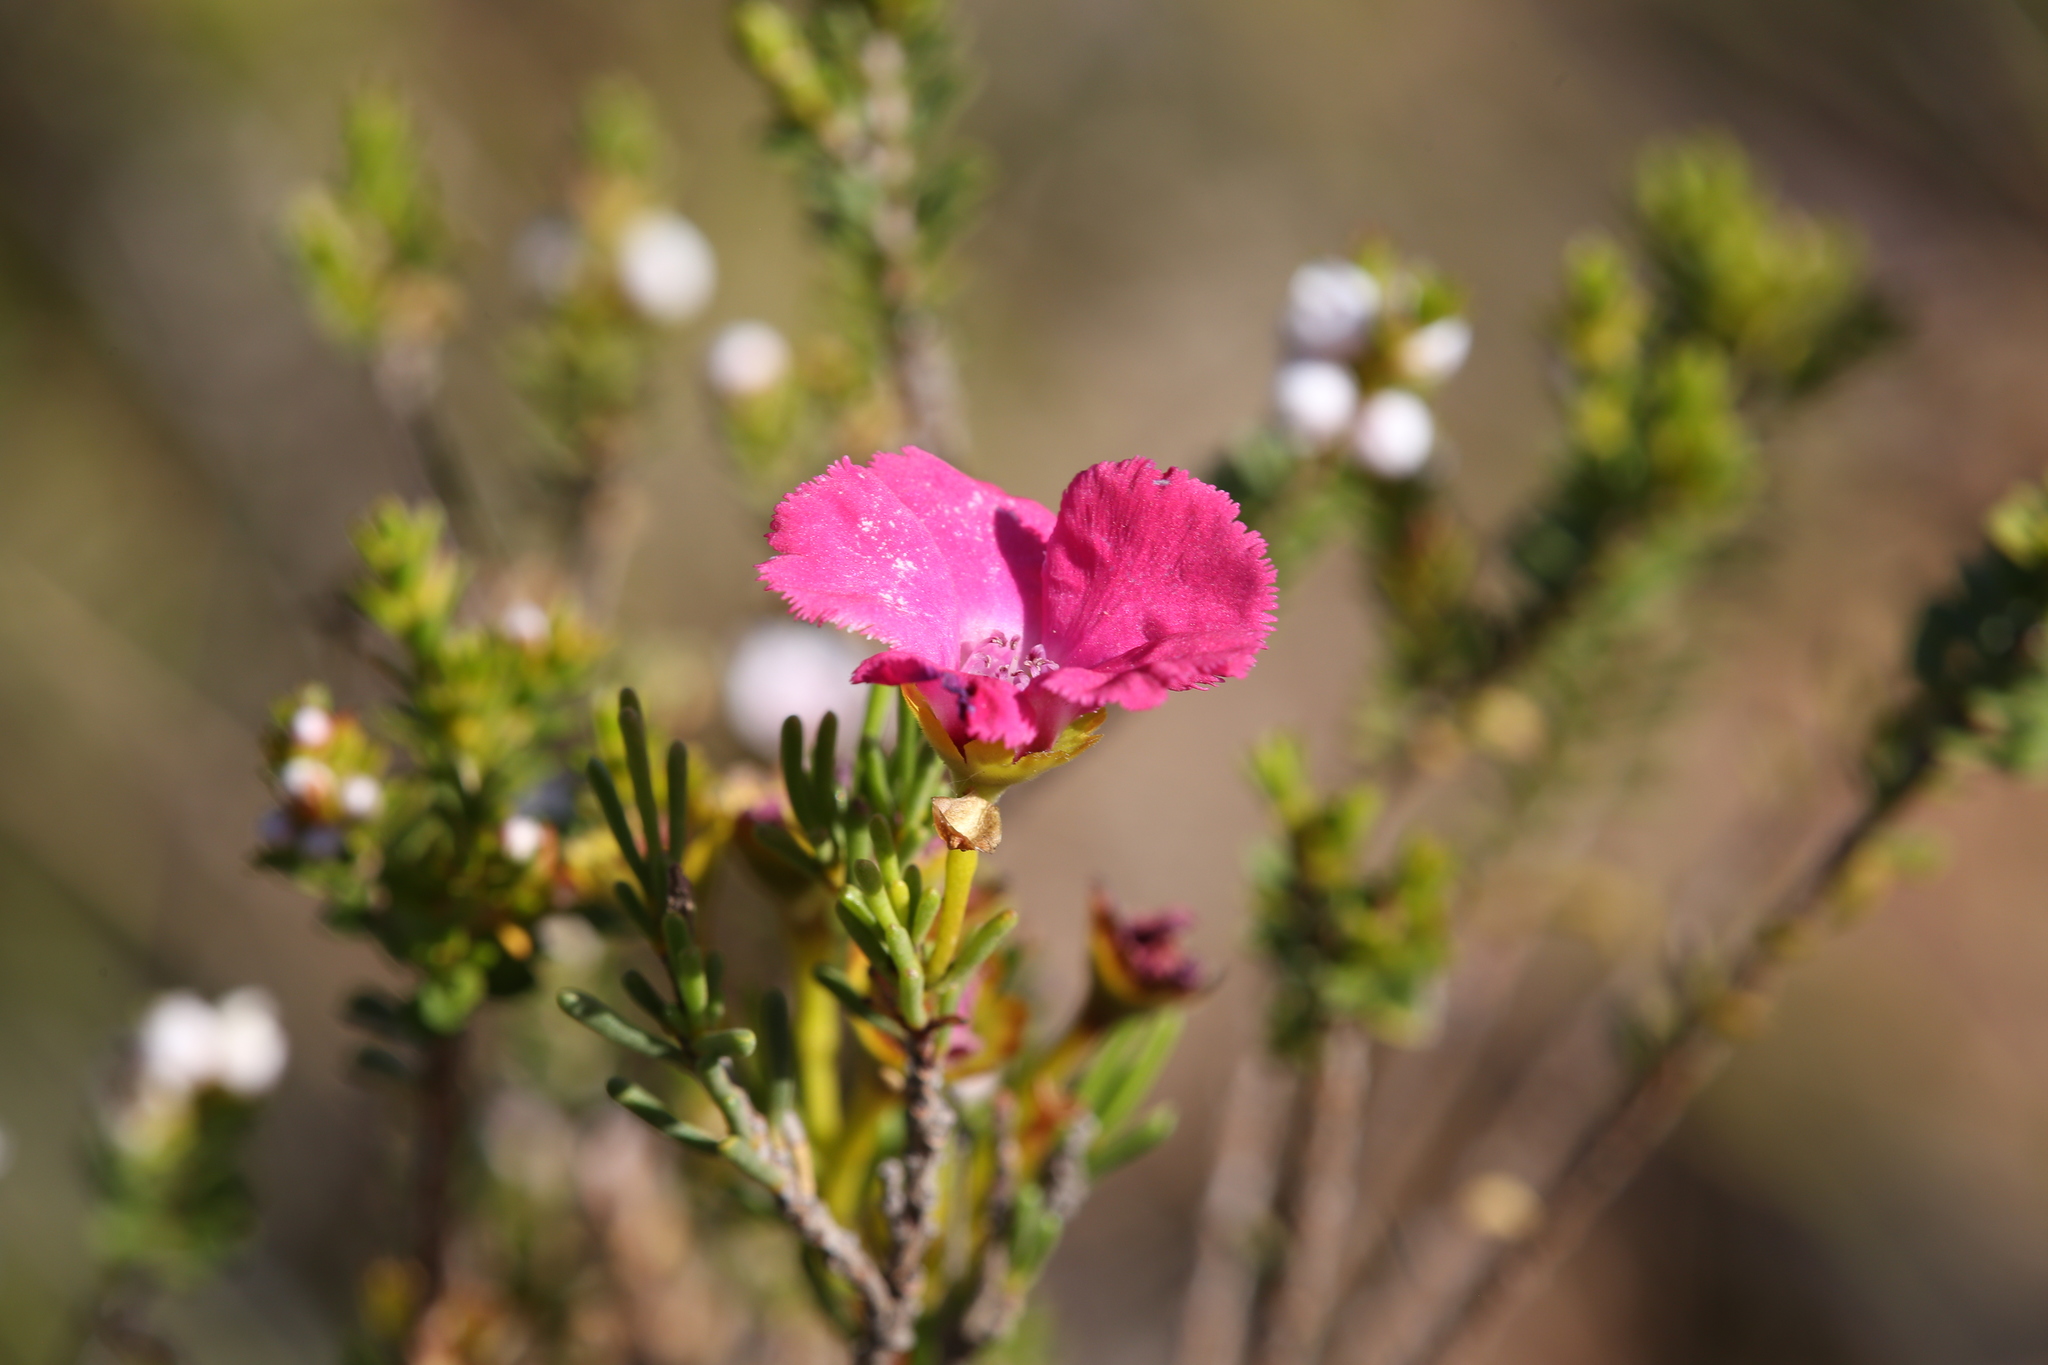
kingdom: Plantae
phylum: Tracheophyta
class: Magnoliopsida
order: Myrtales
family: Myrtaceae
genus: Pileanthus
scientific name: Pileanthus filifolius
